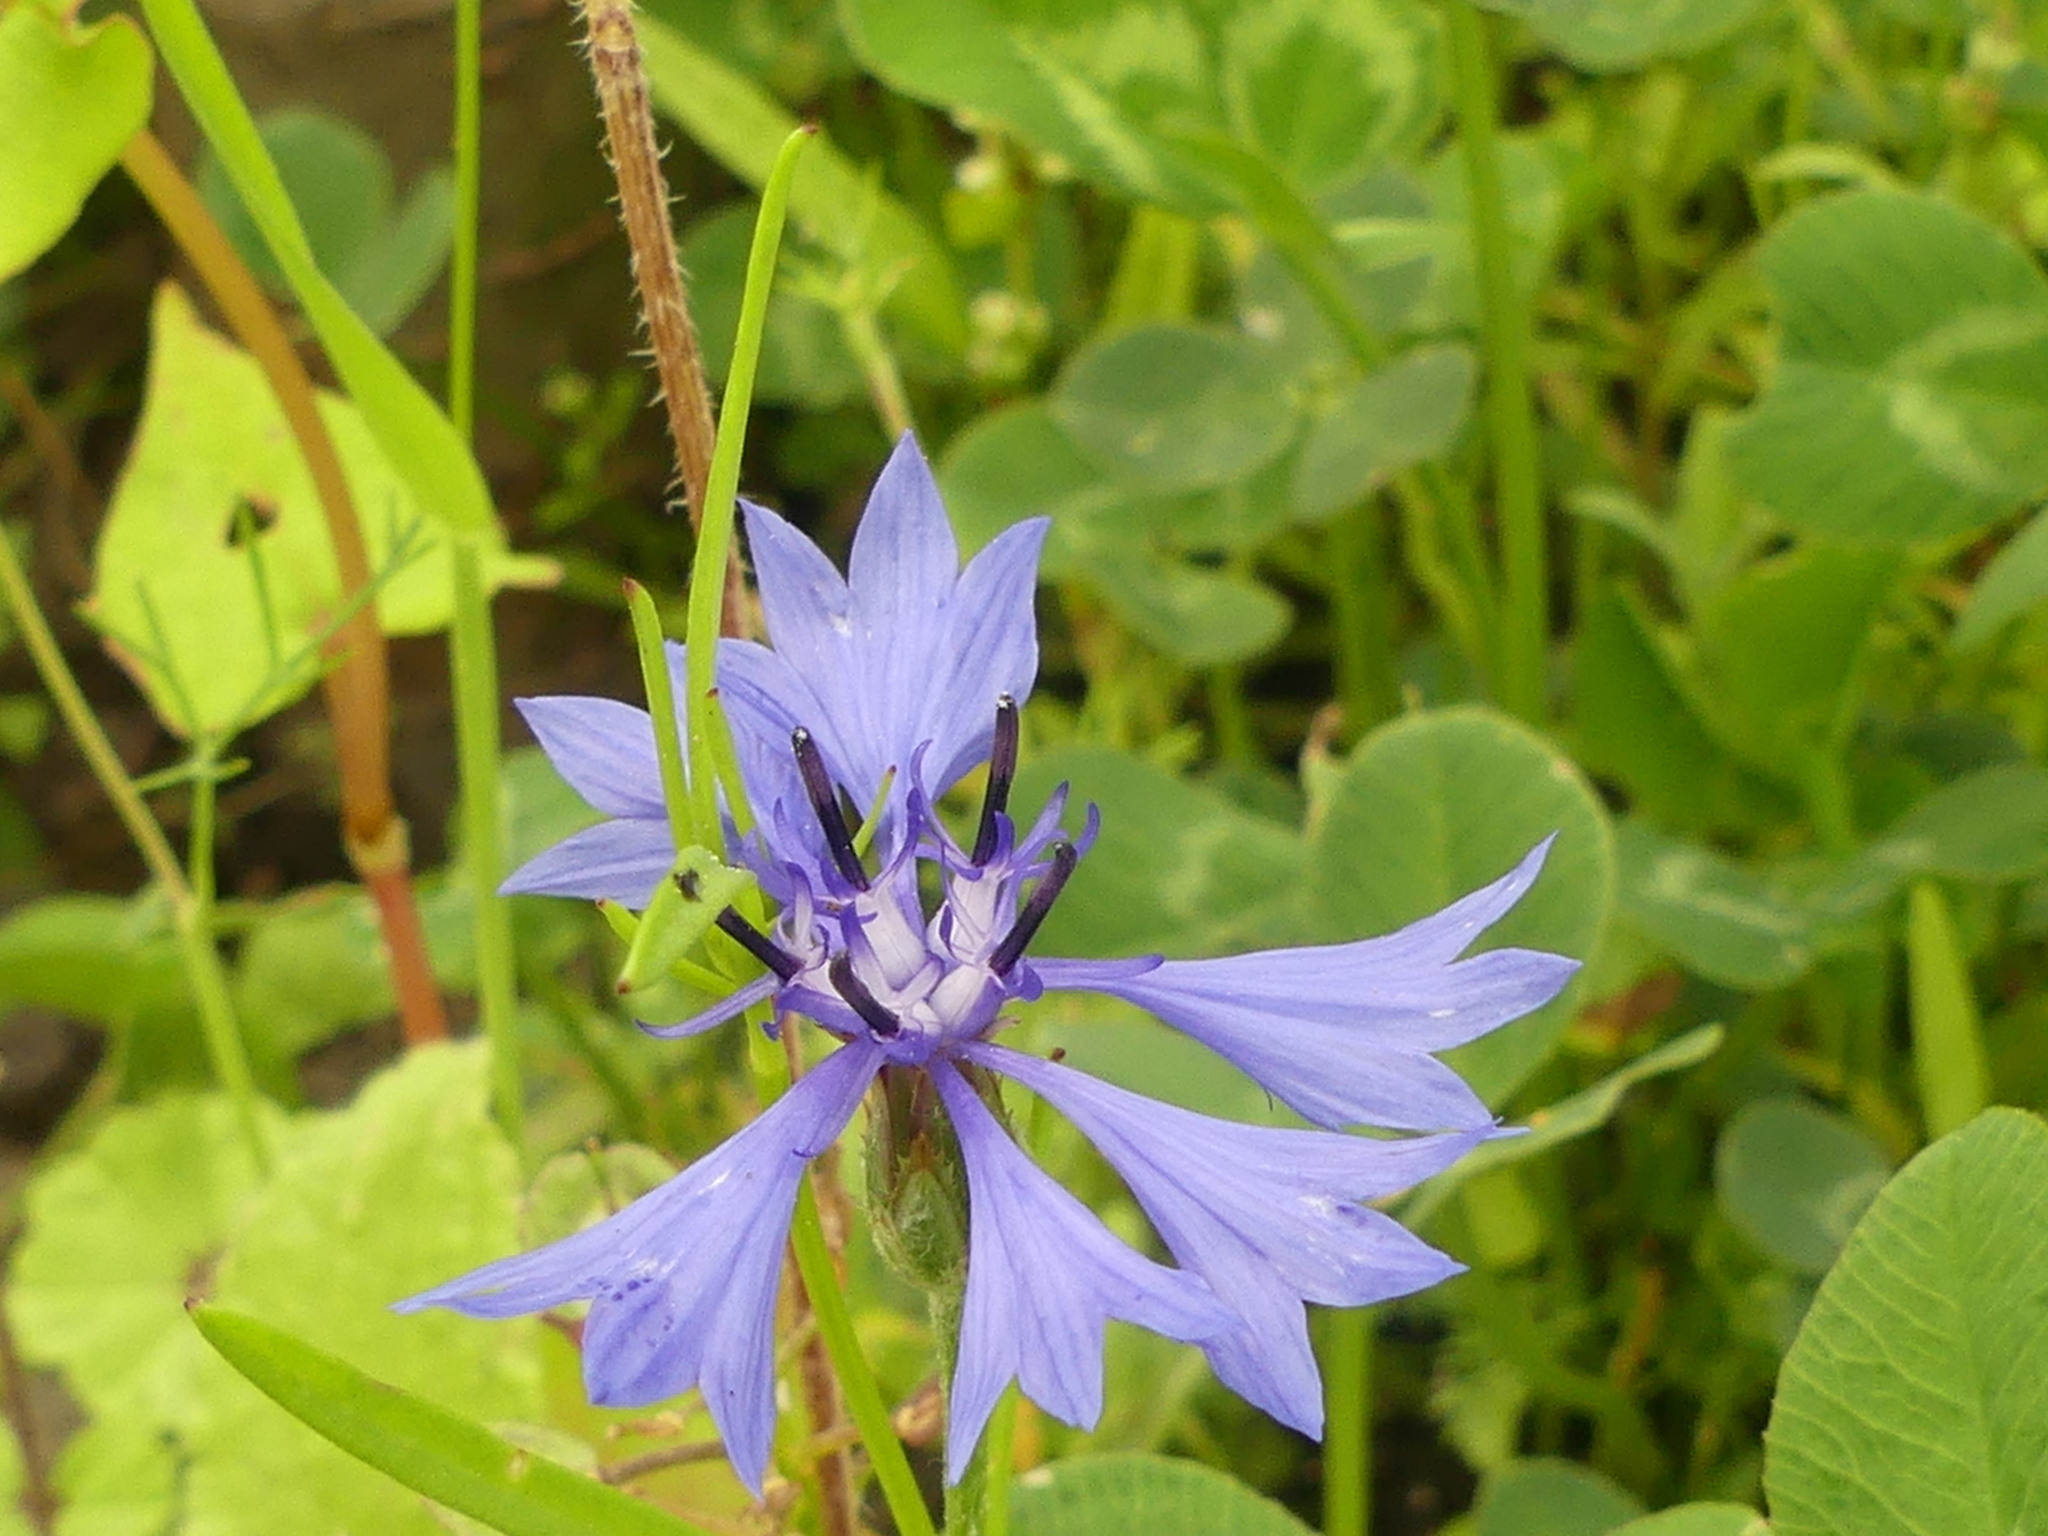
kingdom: Plantae
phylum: Tracheophyta
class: Magnoliopsida
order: Asterales
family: Asteraceae
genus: Centaurea
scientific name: Centaurea cyanus
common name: Cornflower
